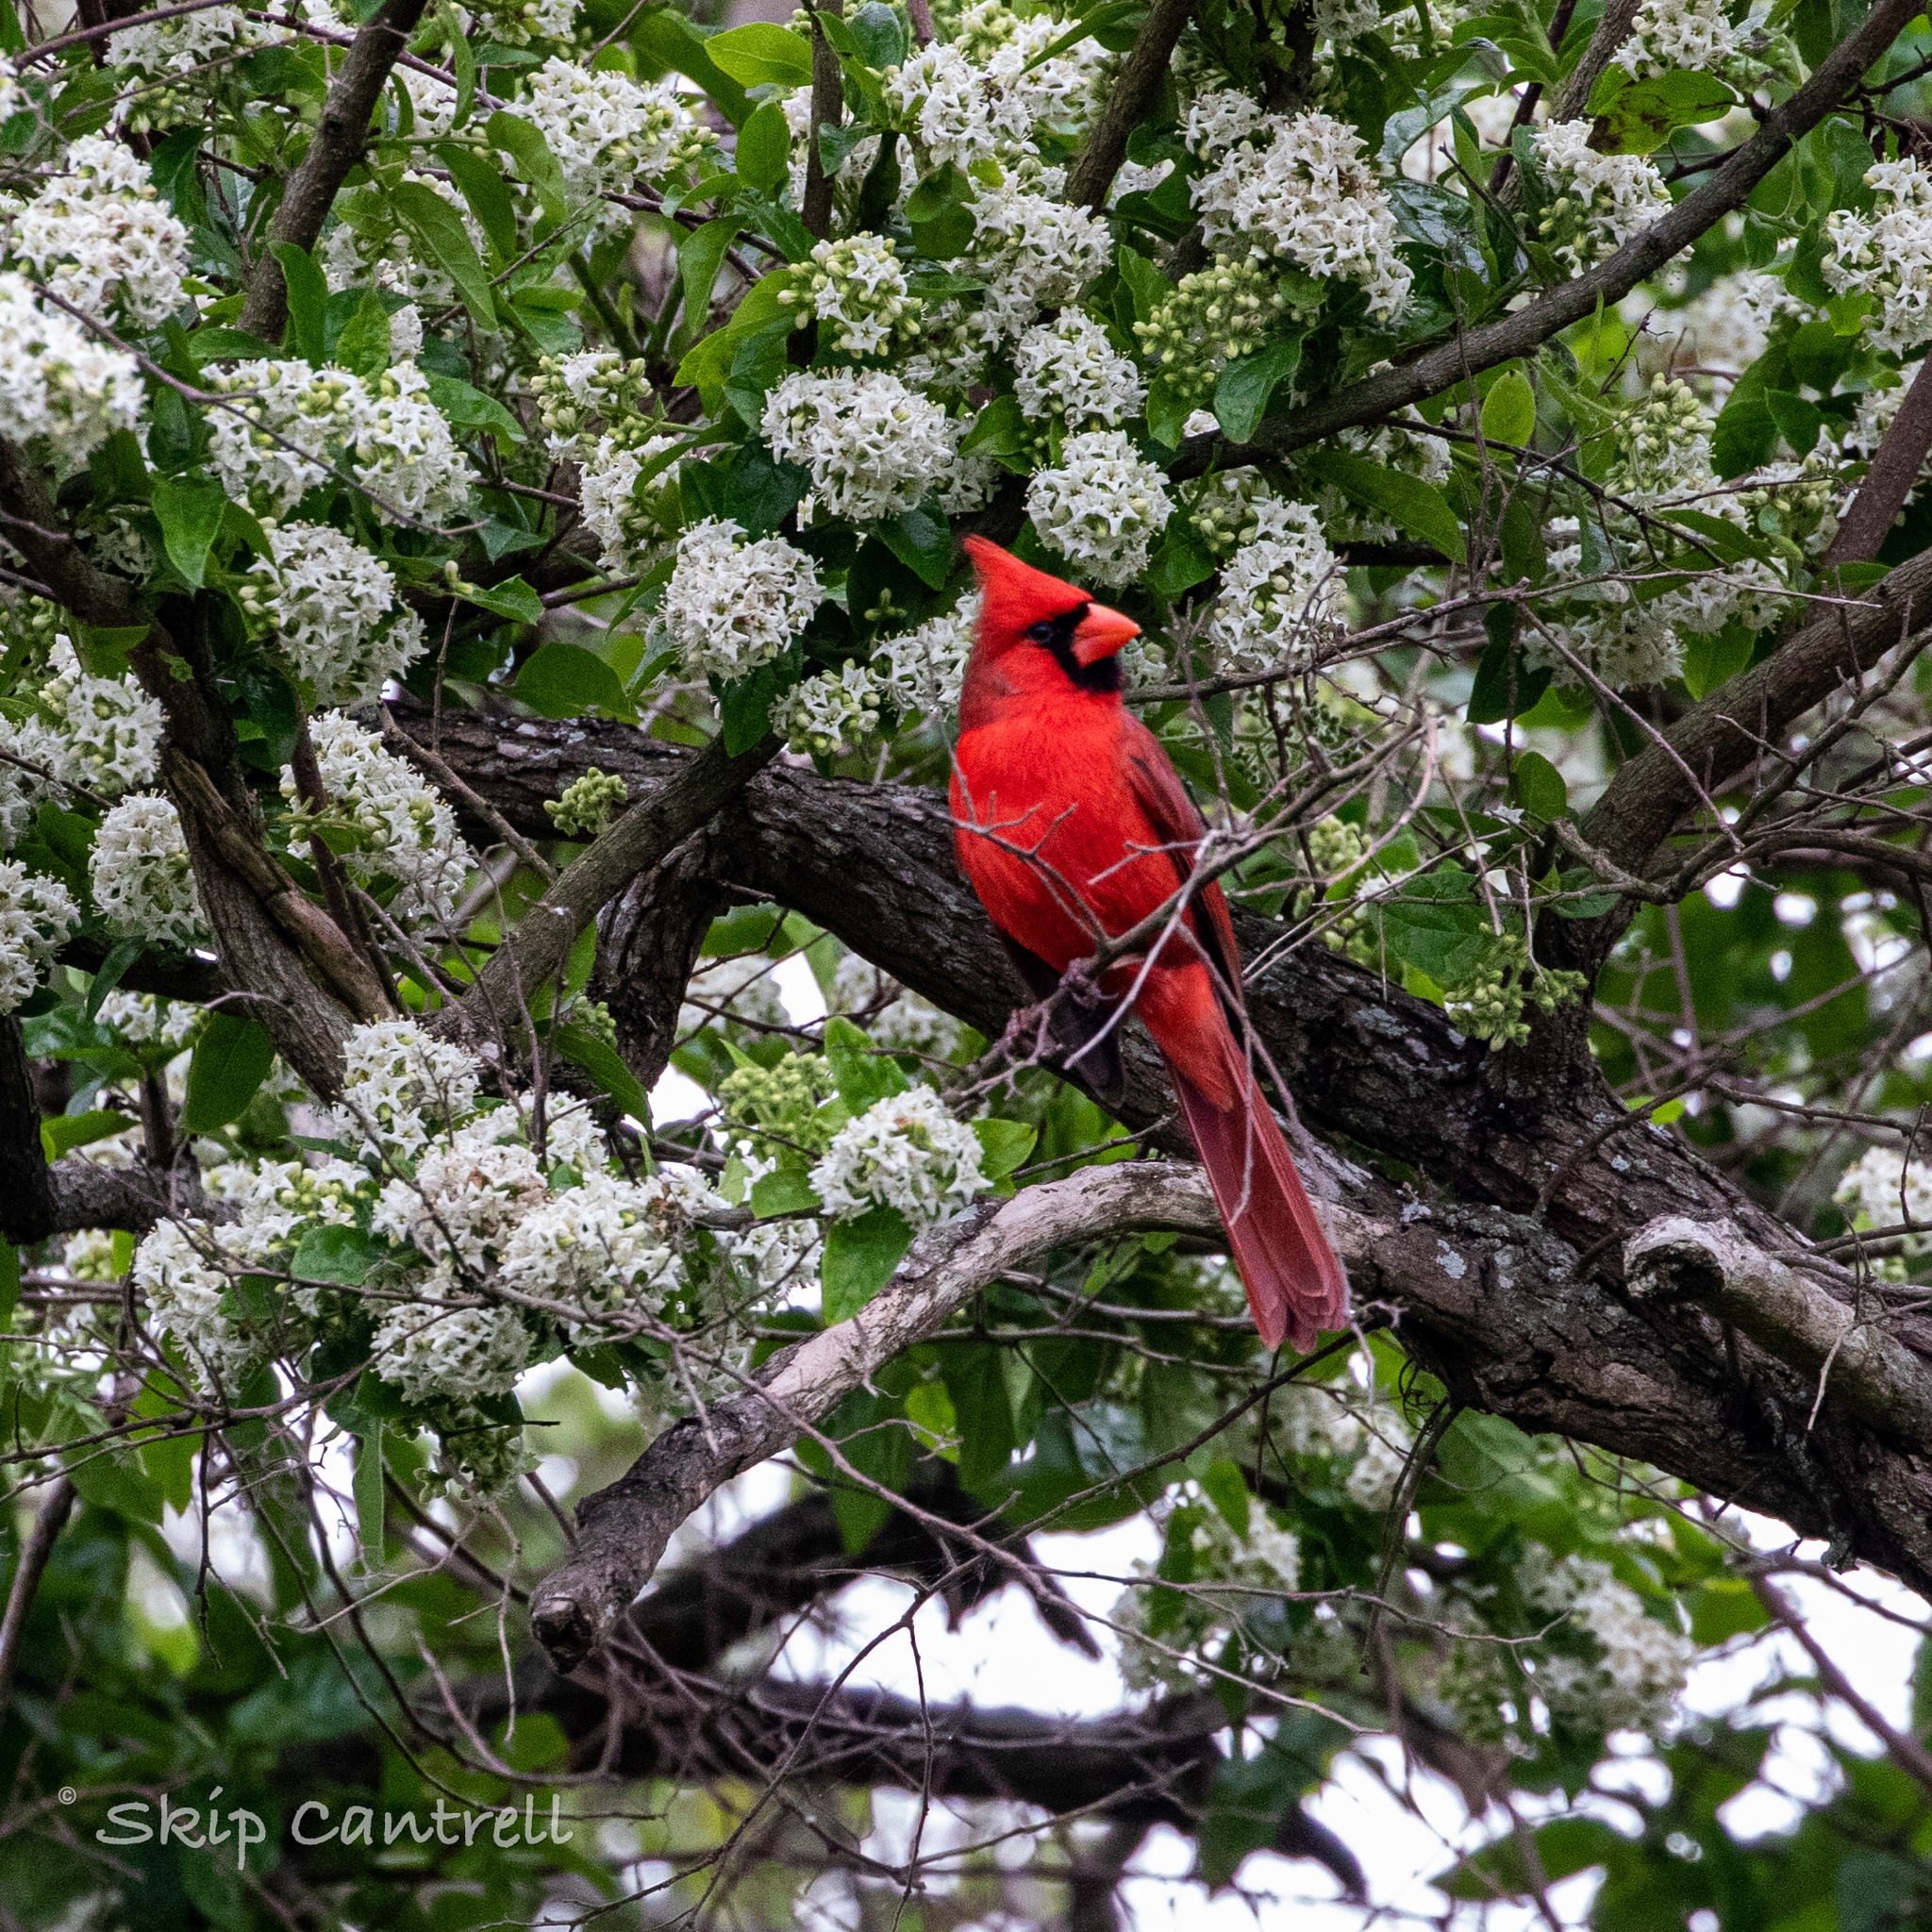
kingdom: Animalia
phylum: Chordata
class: Aves
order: Passeriformes
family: Cardinalidae
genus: Cardinalis
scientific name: Cardinalis cardinalis
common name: Northern cardinal
